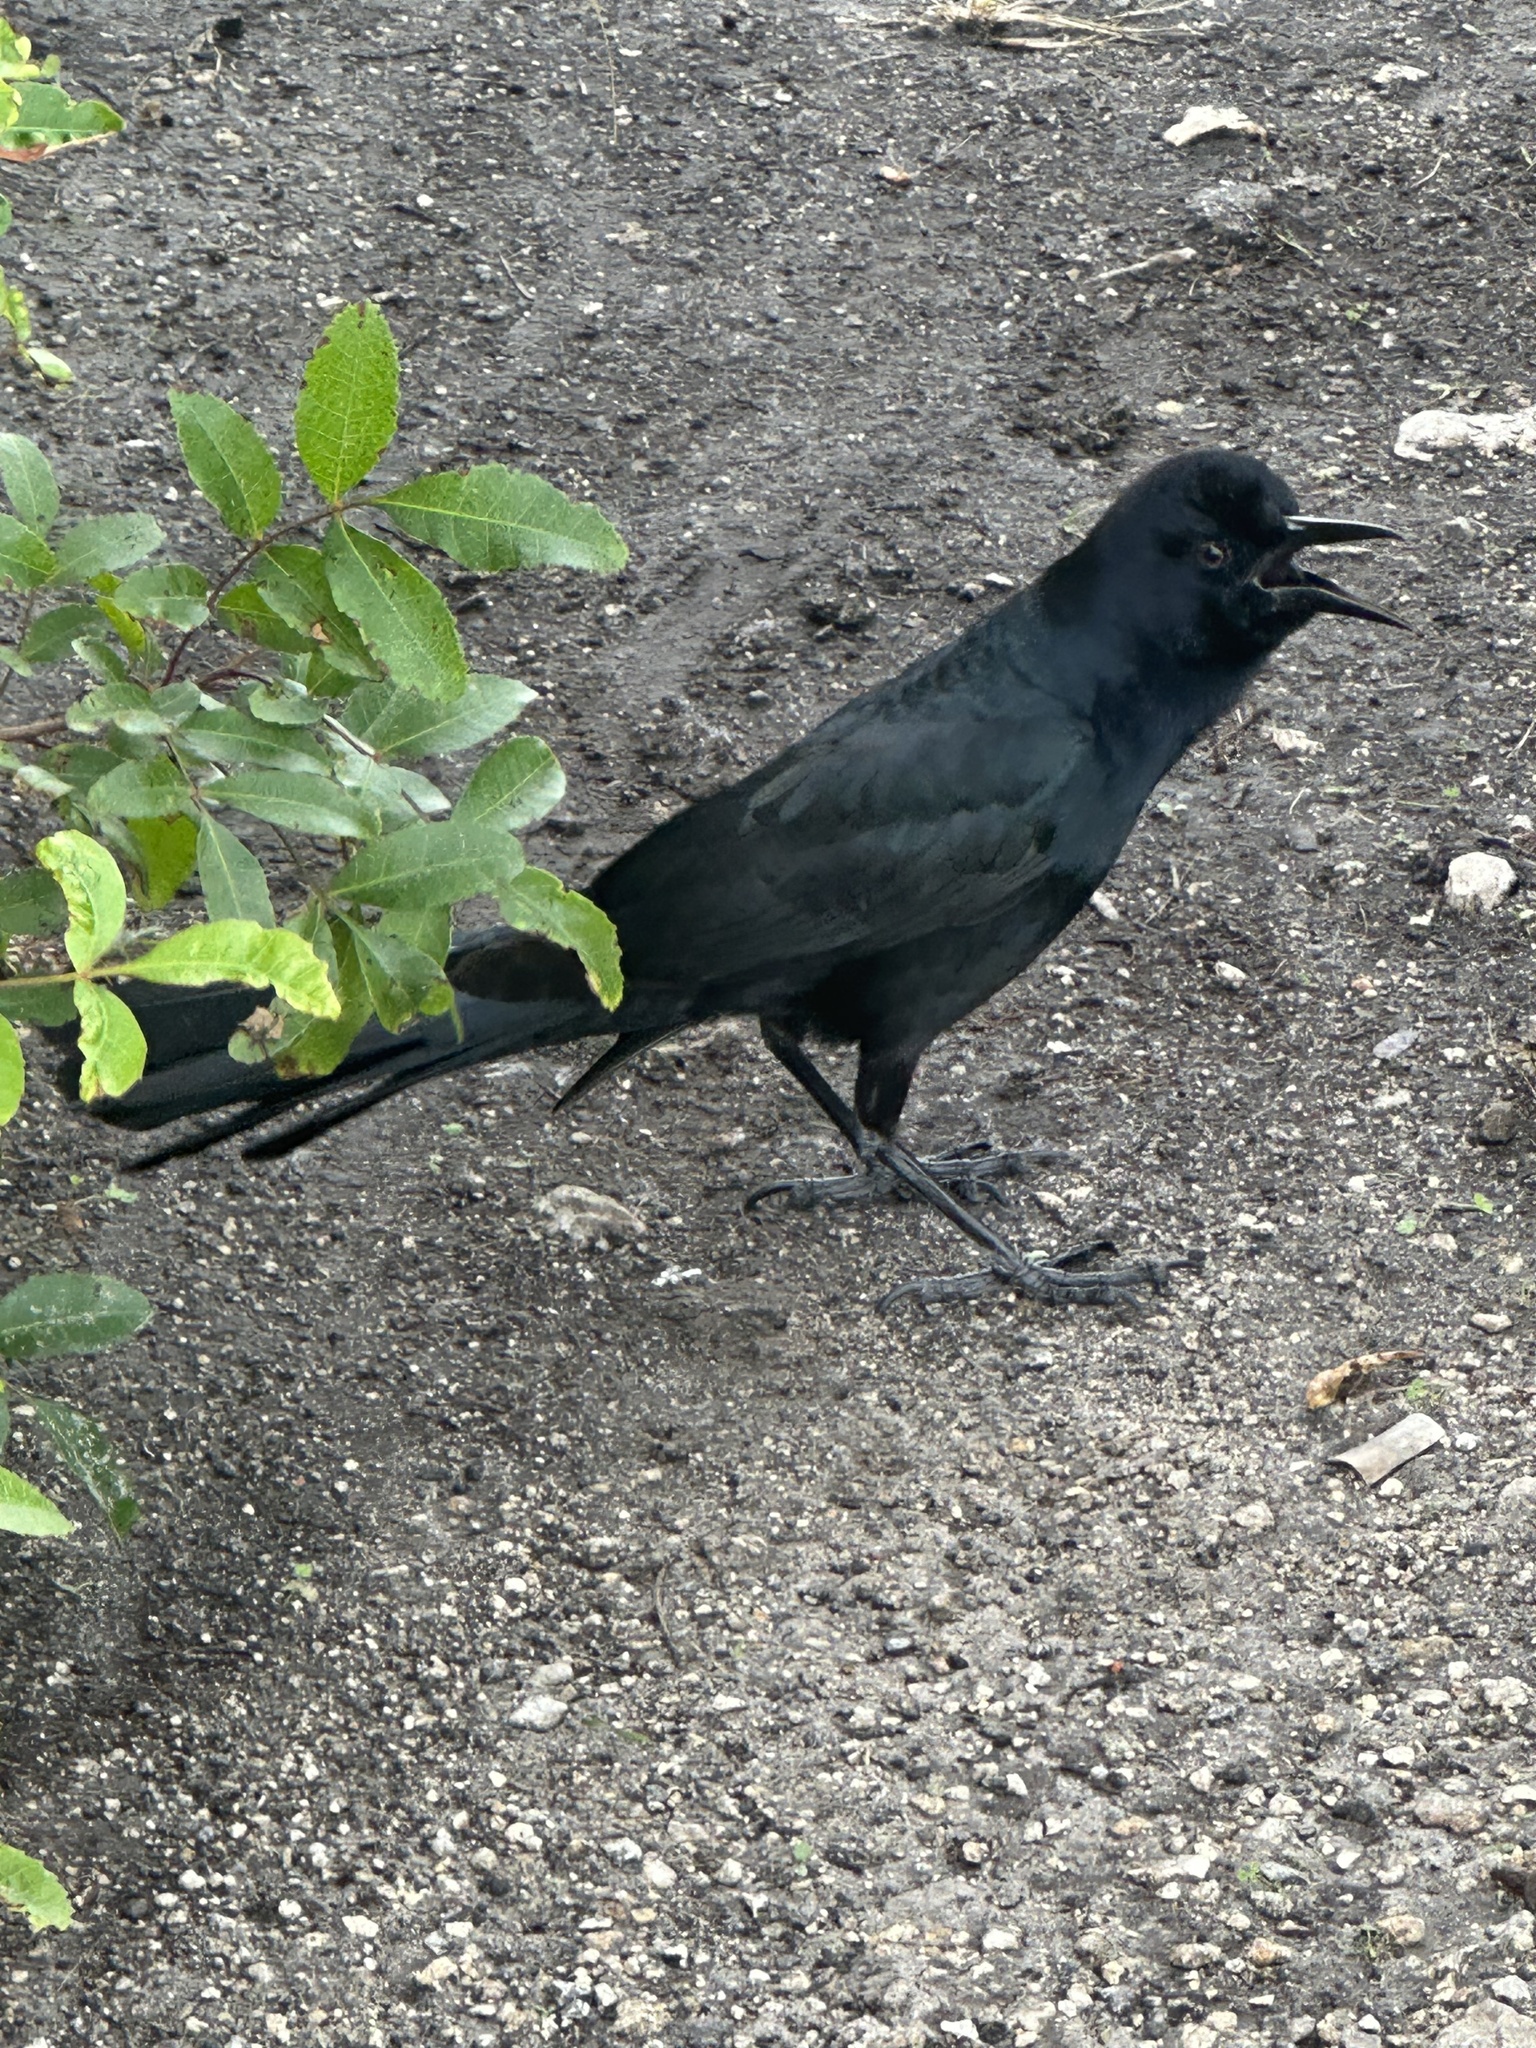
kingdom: Animalia
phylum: Chordata
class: Aves
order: Passeriformes
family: Icteridae
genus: Quiscalus
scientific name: Quiscalus major
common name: Boat-tailed grackle
